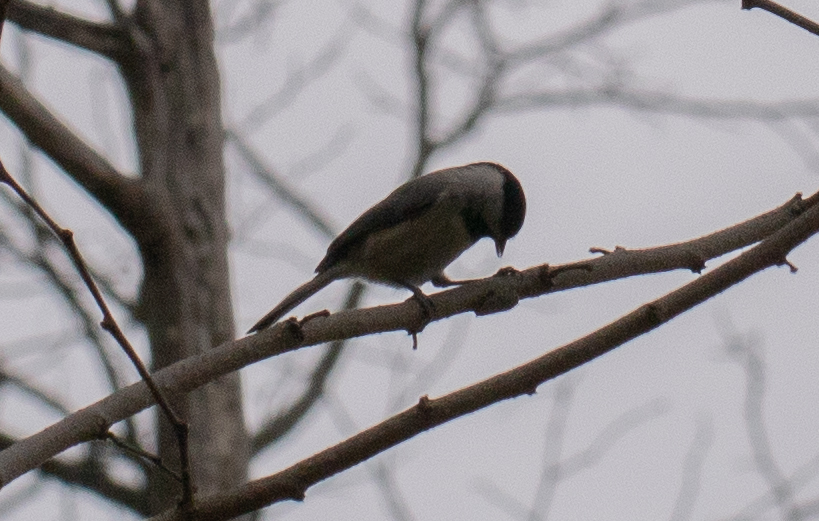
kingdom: Animalia
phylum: Chordata
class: Aves
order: Passeriformes
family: Paridae
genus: Poecile
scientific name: Poecile carolinensis
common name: Carolina chickadee
